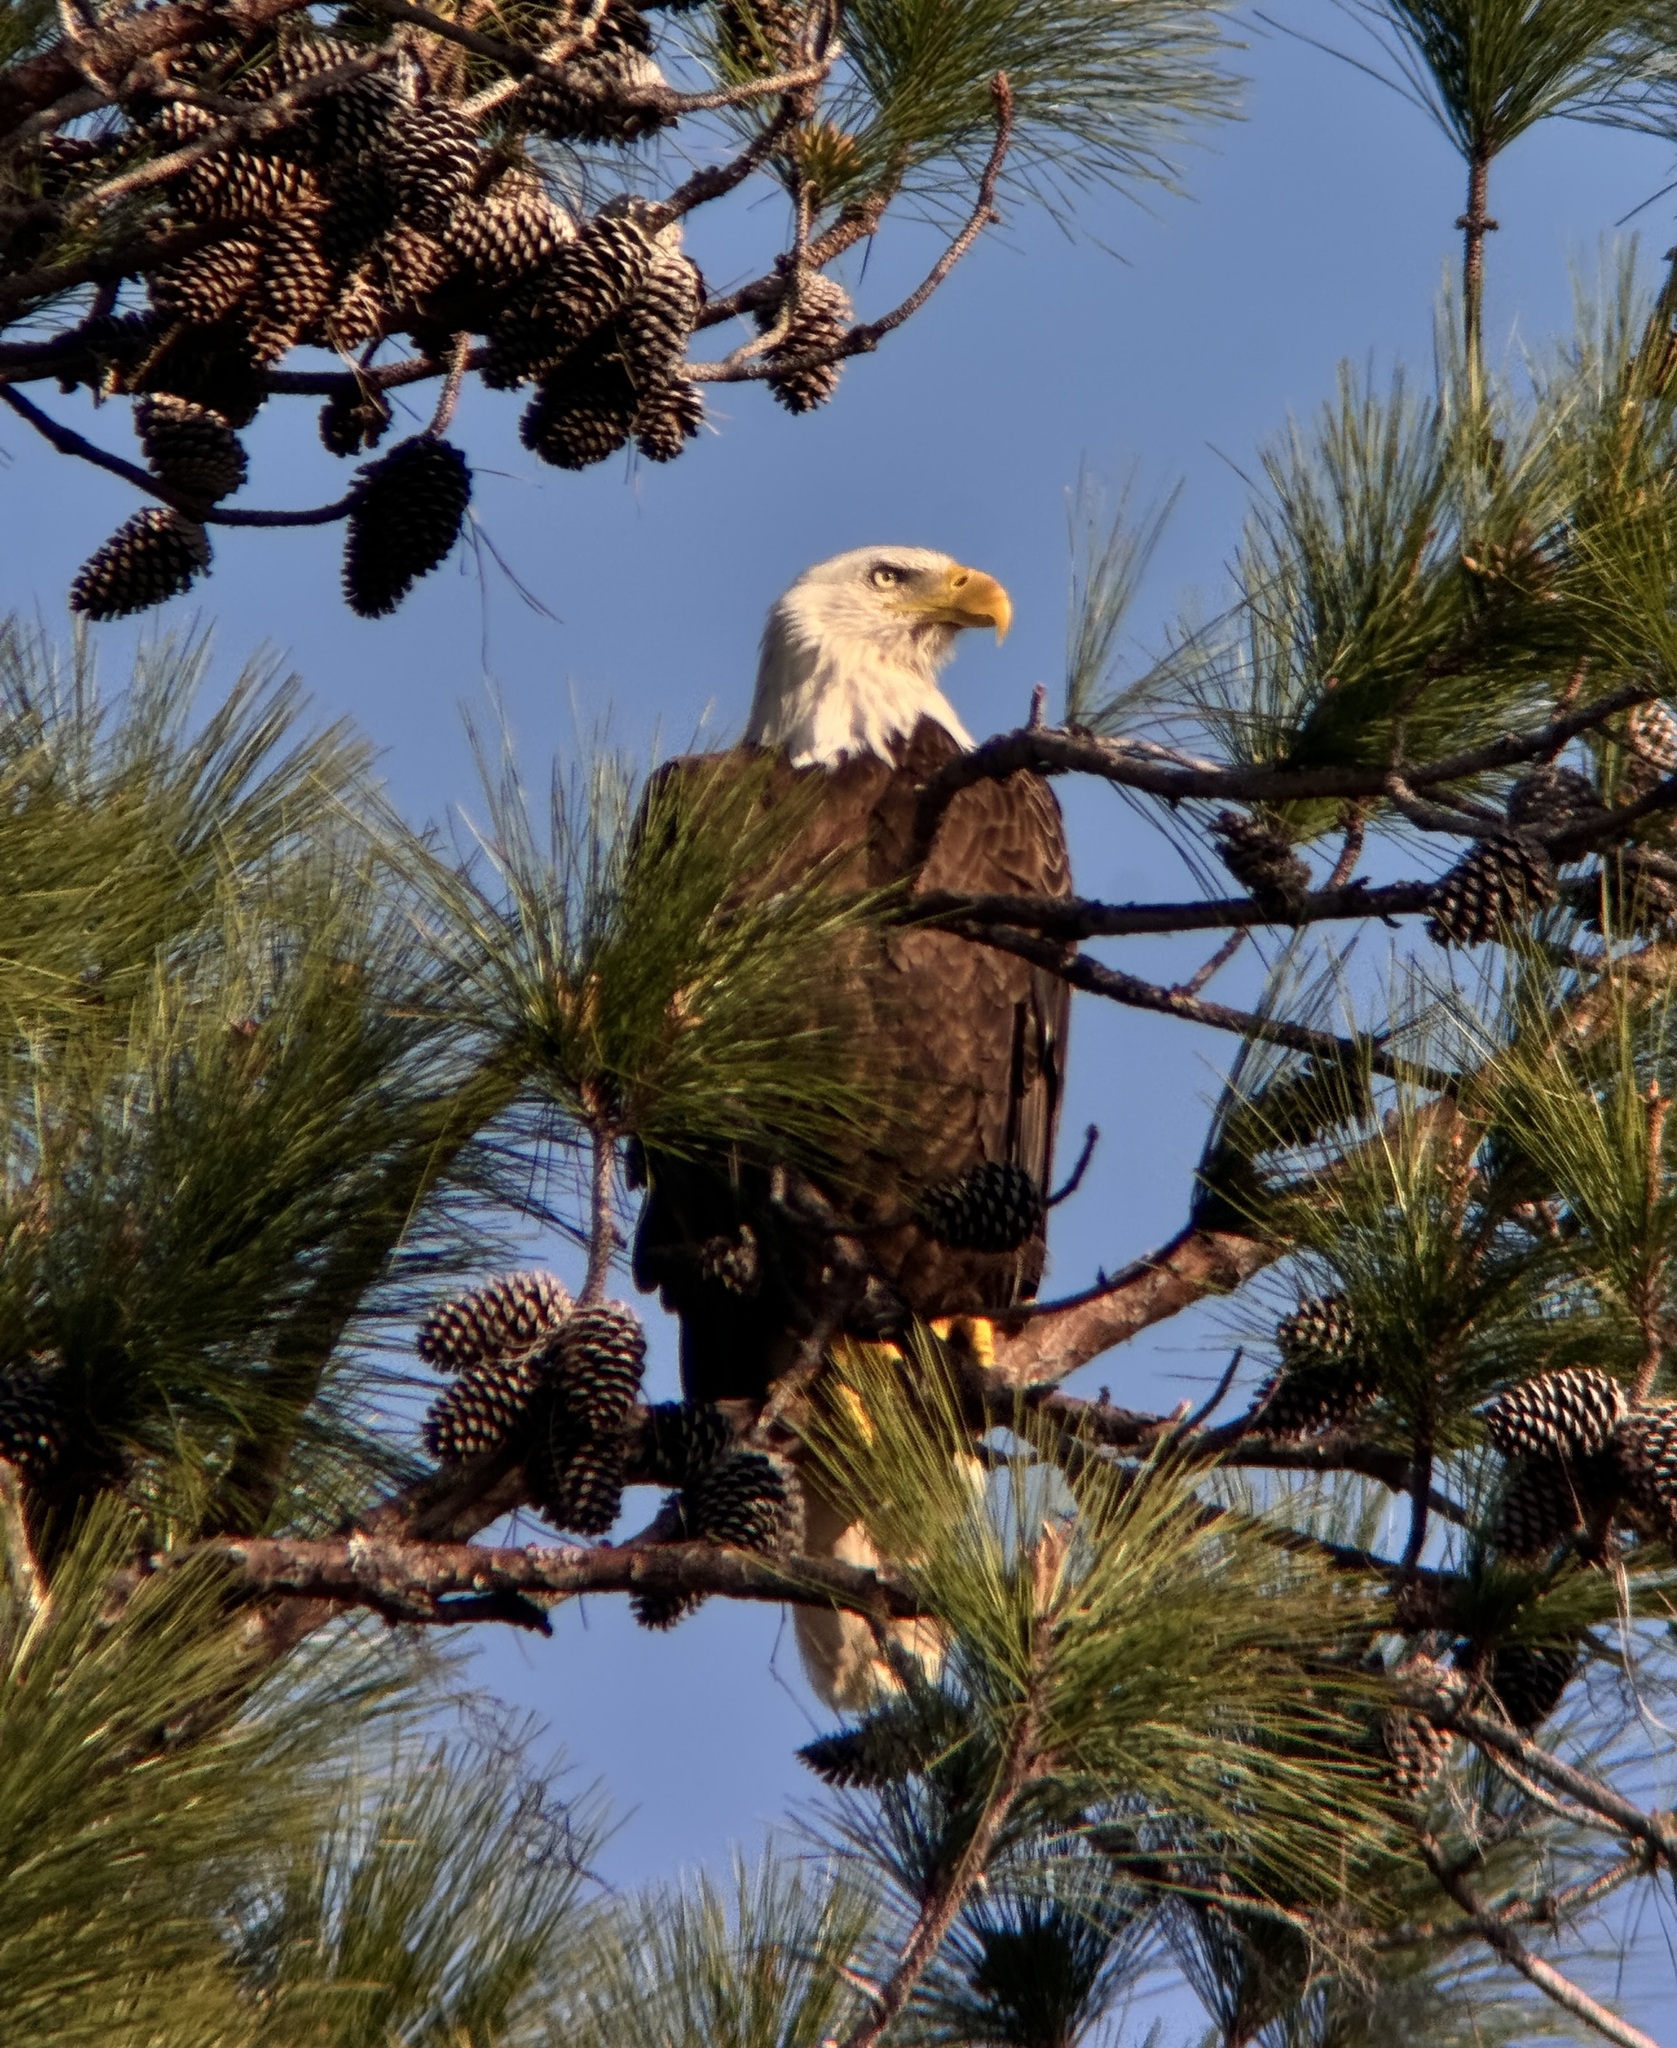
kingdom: Animalia
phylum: Chordata
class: Aves
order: Accipitriformes
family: Accipitridae
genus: Haliaeetus
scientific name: Haliaeetus leucocephalus
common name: Bald eagle
